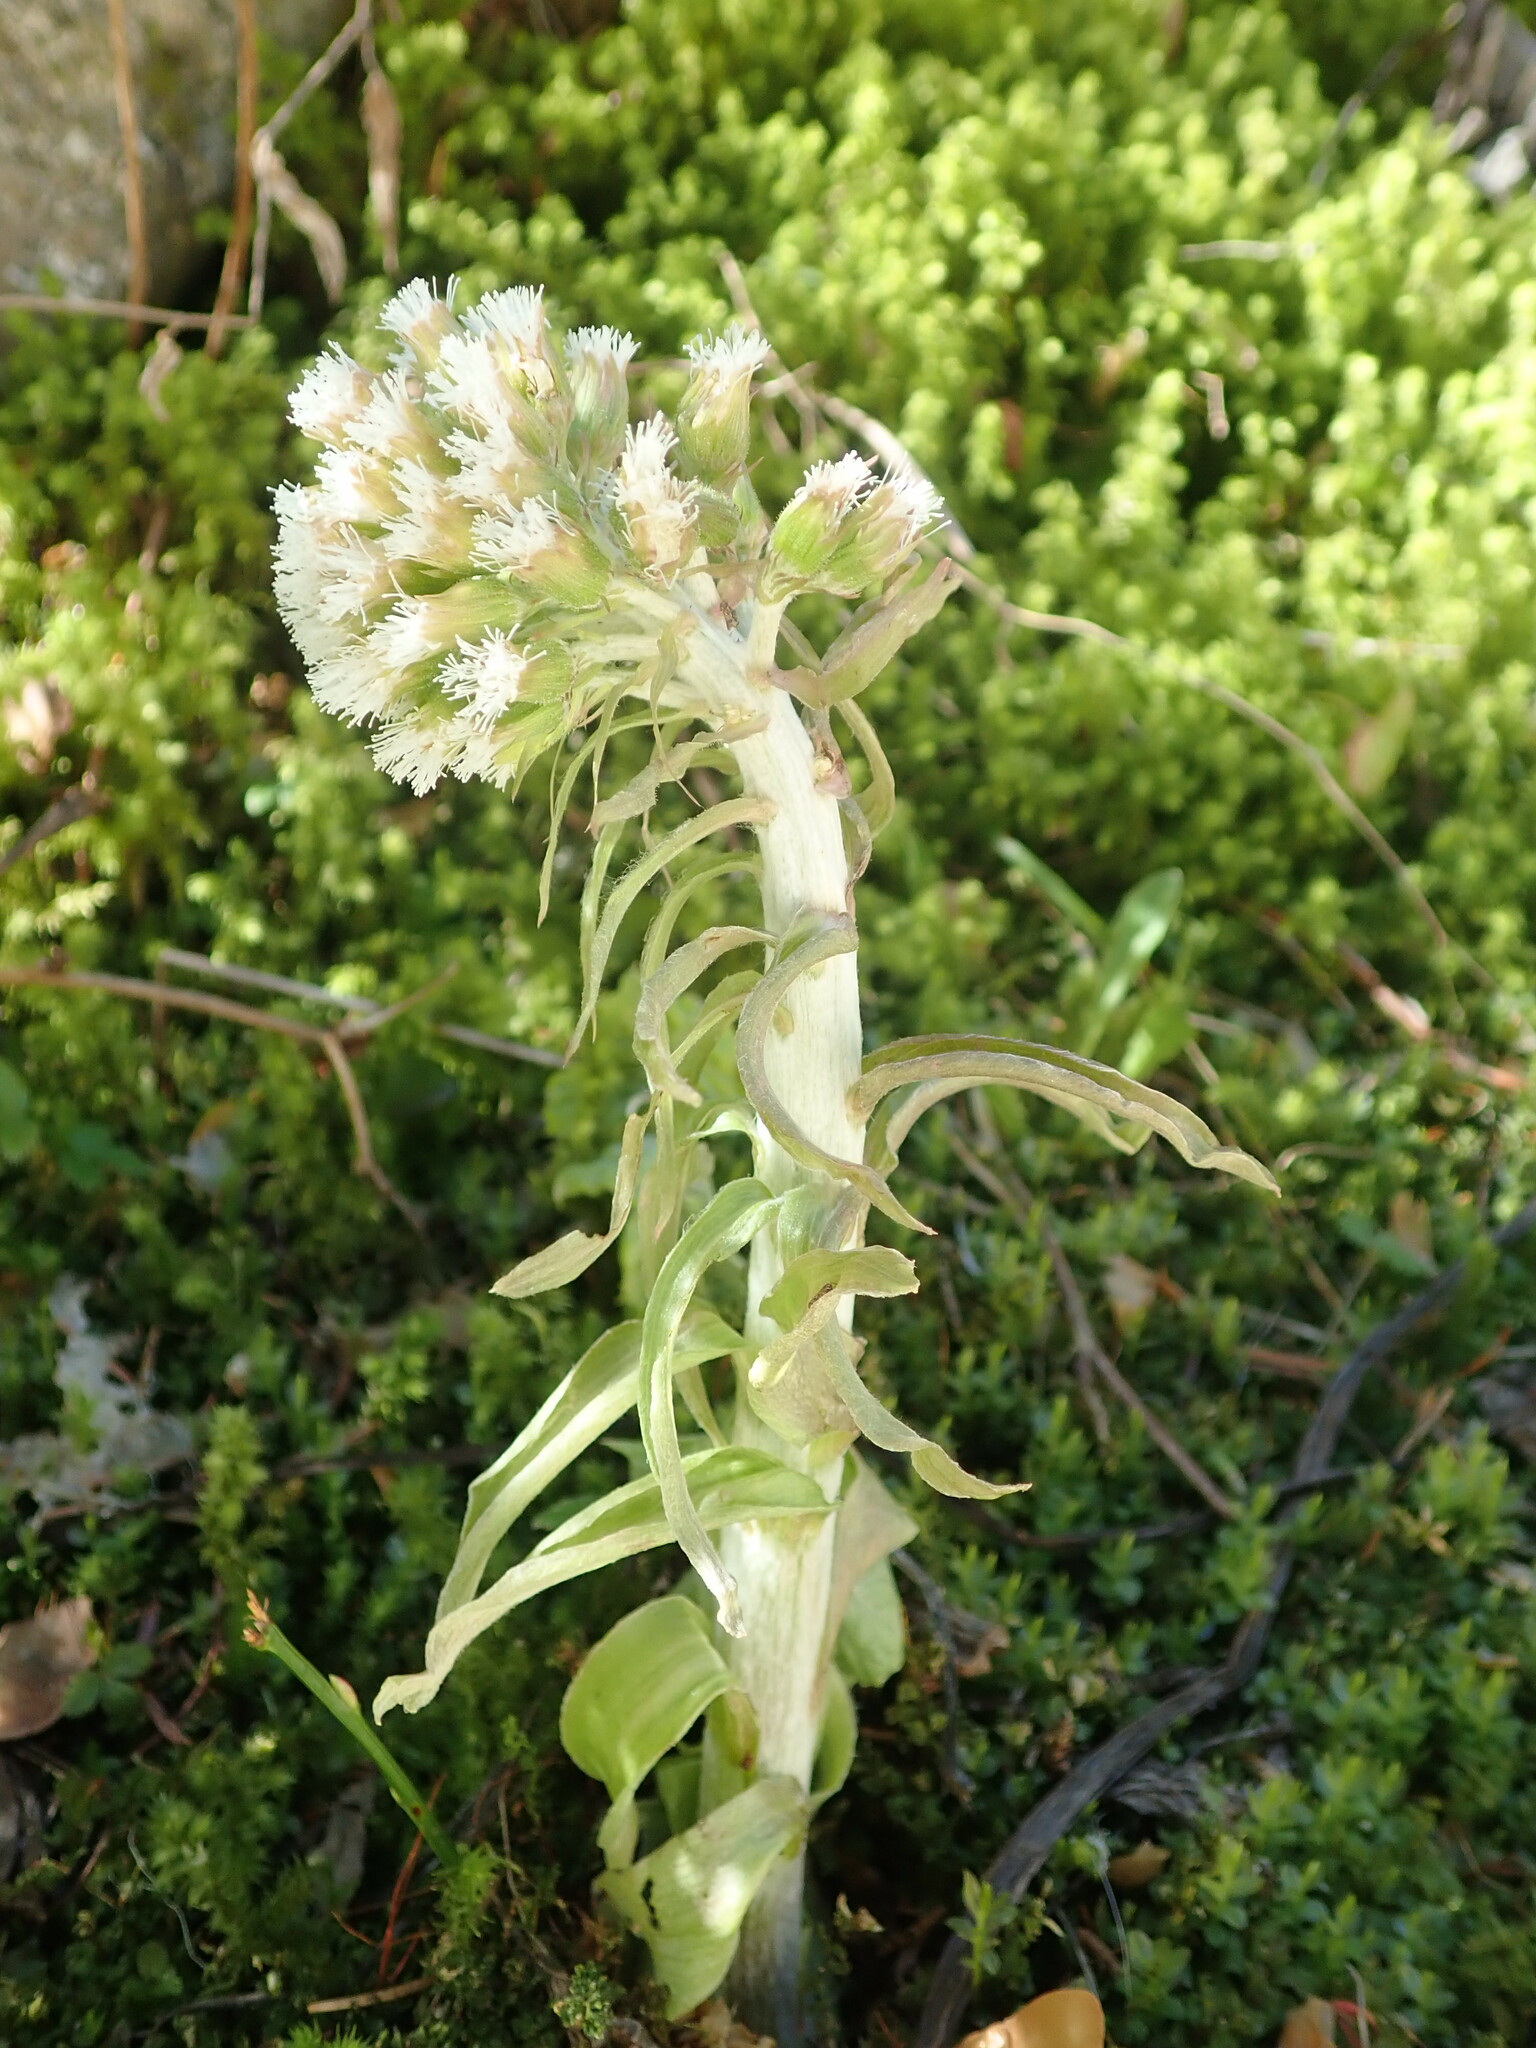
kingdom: Plantae
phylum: Tracheophyta
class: Magnoliopsida
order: Asterales
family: Asteraceae
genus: Petasites
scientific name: Petasites albus
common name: White butterbur
